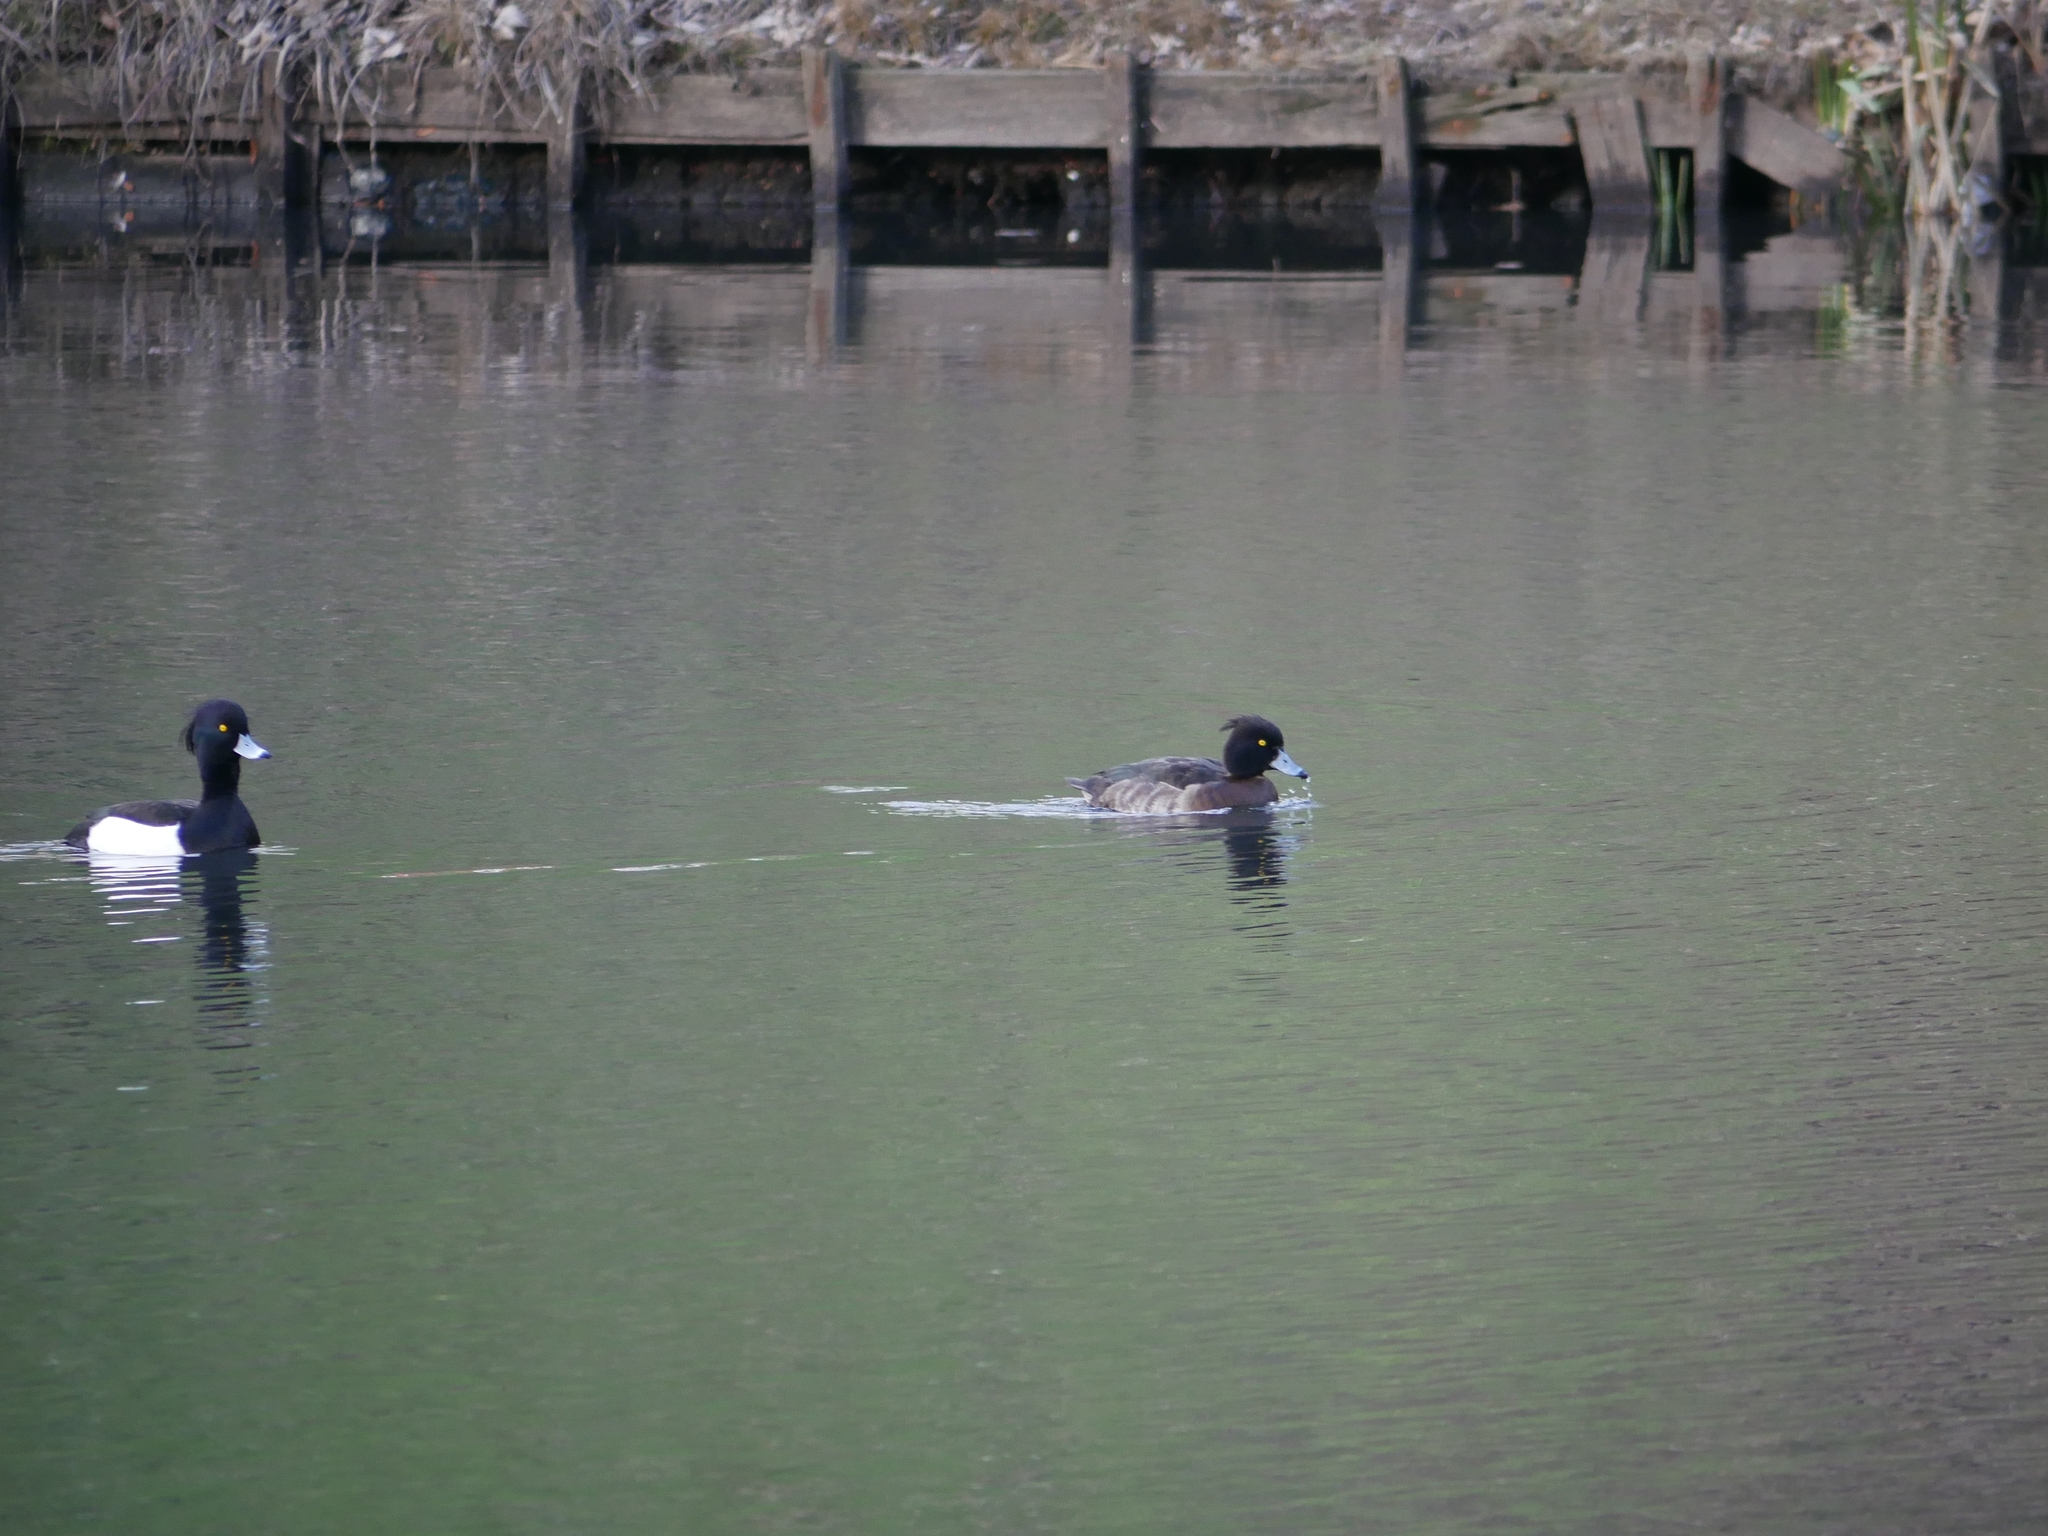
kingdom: Animalia
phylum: Chordata
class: Aves
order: Anseriformes
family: Anatidae
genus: Aythya
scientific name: Aythya fuligula
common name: Tufted duck
